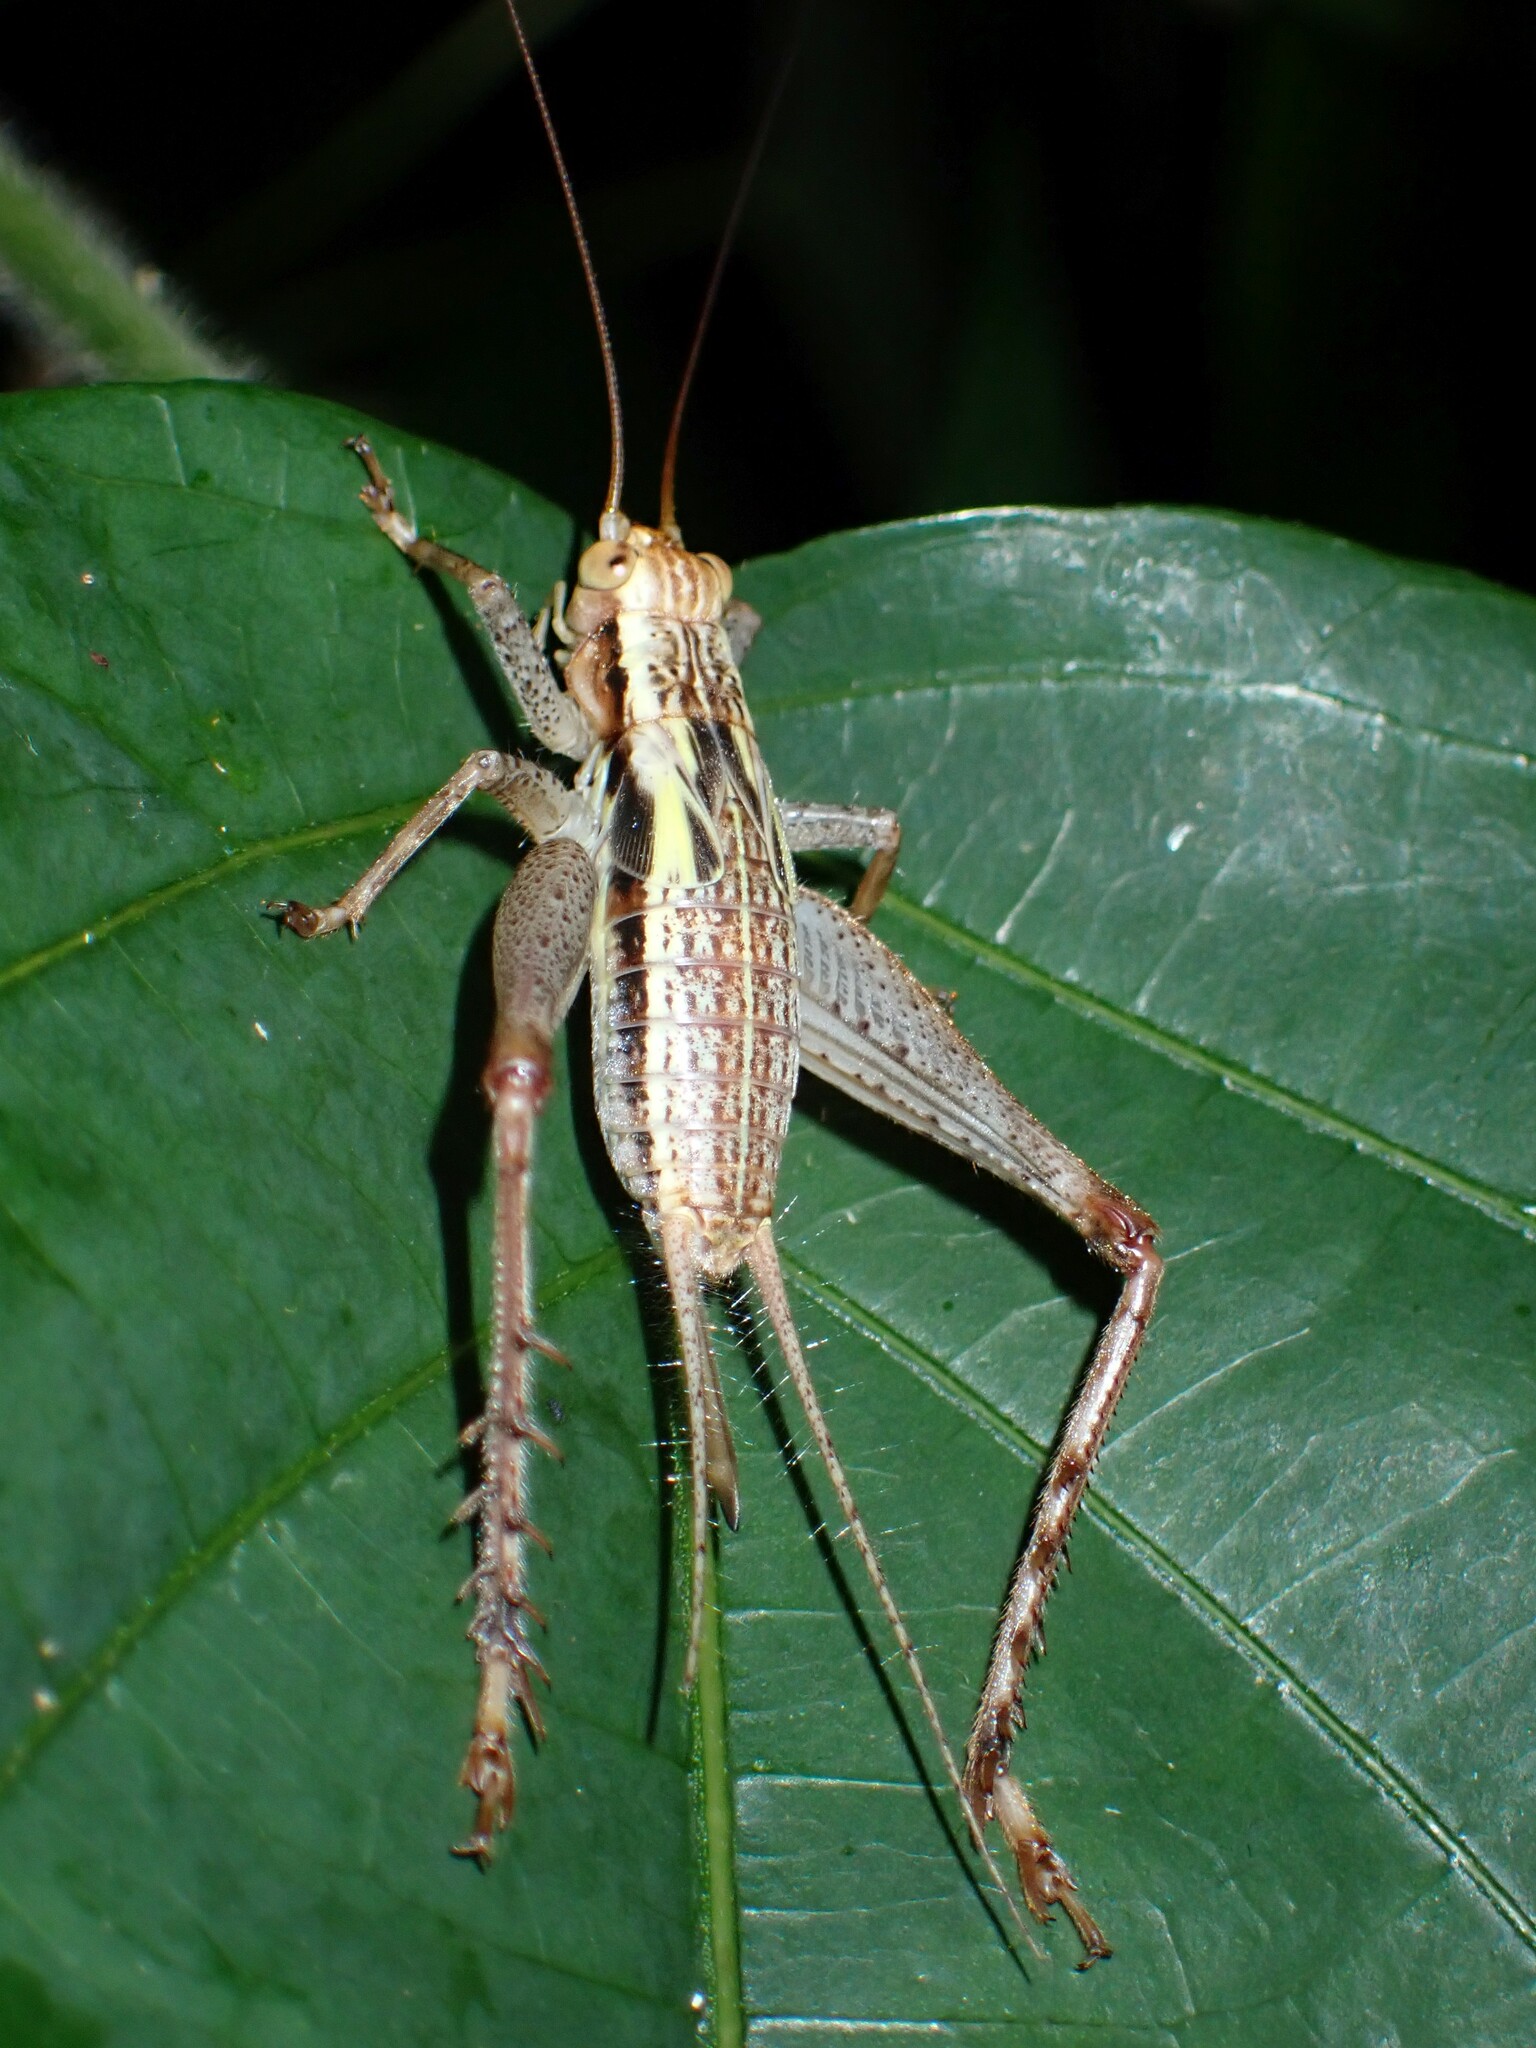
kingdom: Animalia
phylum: Arthropoda
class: Insecta
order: Orthoptera
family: Gryllidae
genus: Cardiodactylus
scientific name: Cardiodactylus novaeguineae
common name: Sad cricket
